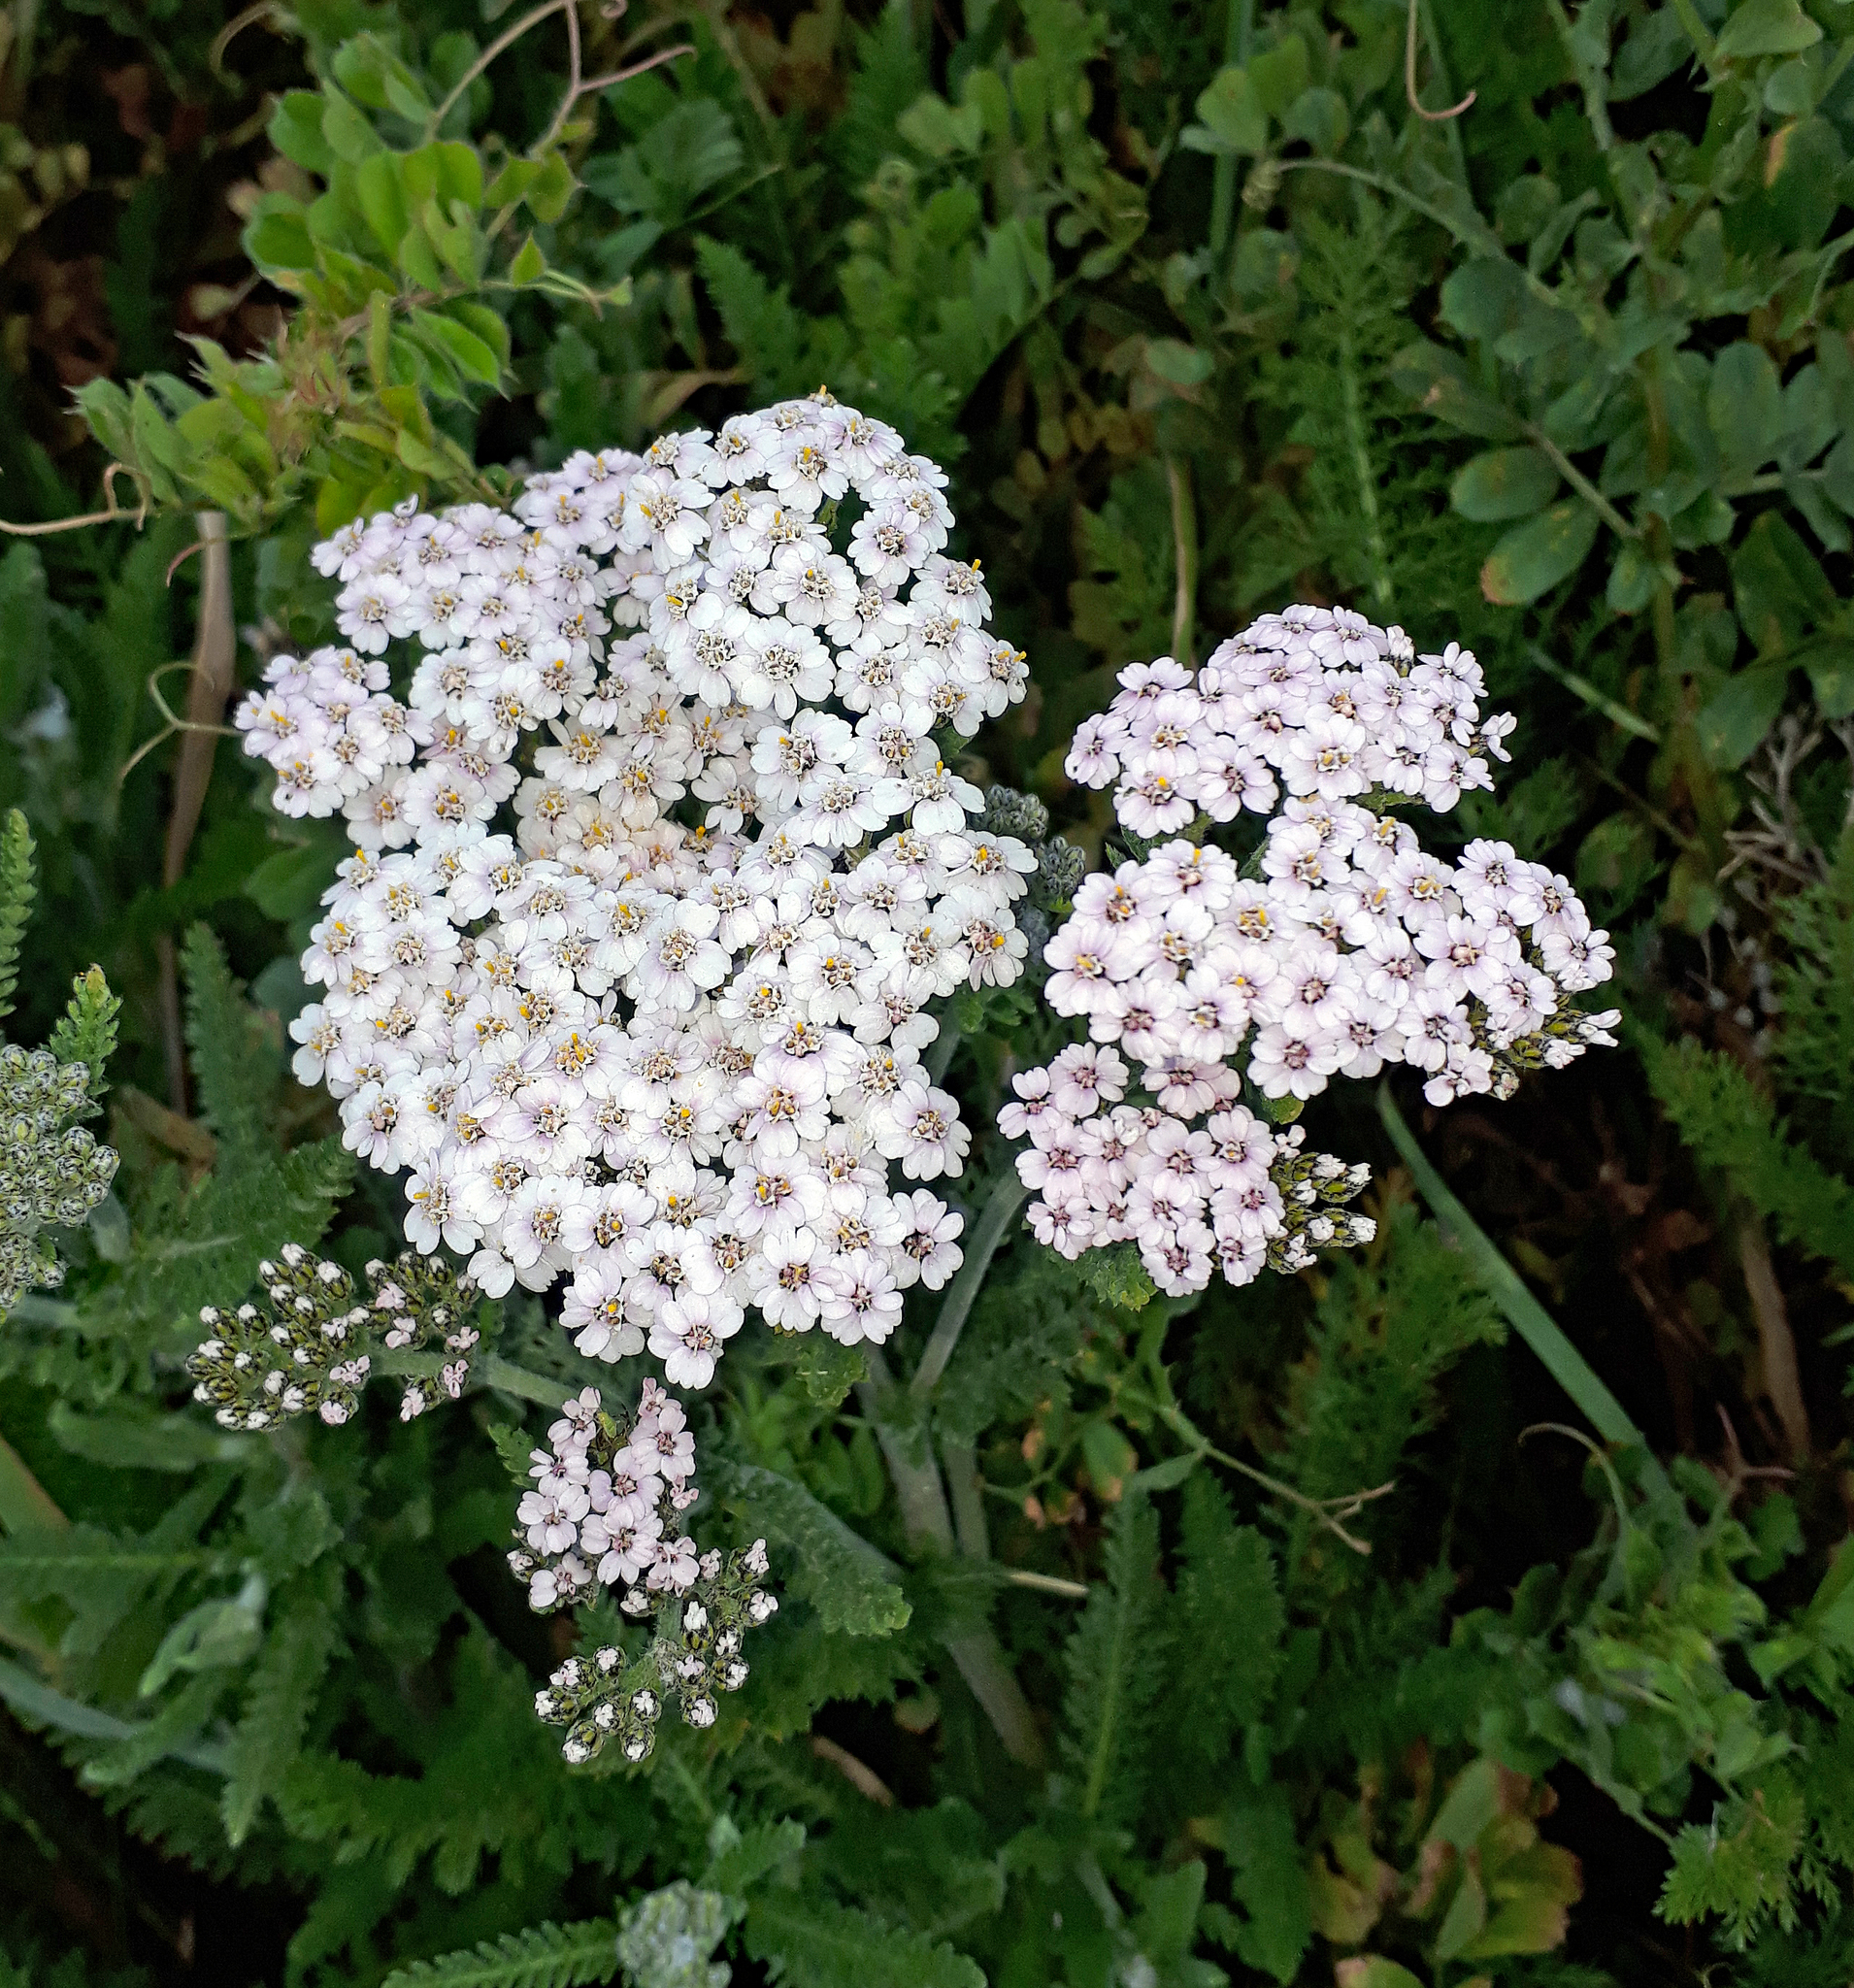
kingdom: Plantae
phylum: Tracheophyta
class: Magnoliopsida
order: Asterales
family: Asteraceae
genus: Achillea
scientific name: Achillea millefolium
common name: Yarrow
